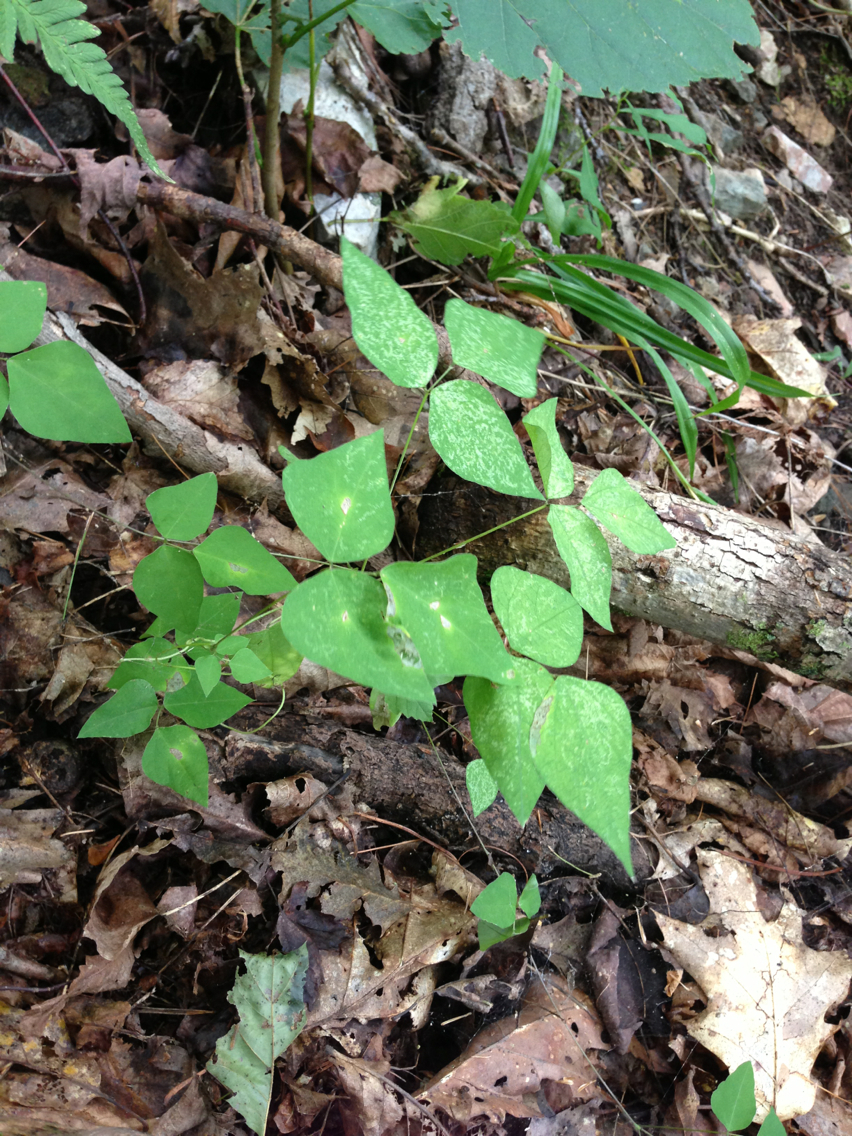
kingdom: Plantae
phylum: Tracheophyta
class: Magnoliopsida
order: Fabales
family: Fabaceae
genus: Amphicarpaea
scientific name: Amphicarpaea bracteata
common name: American hog peanut
